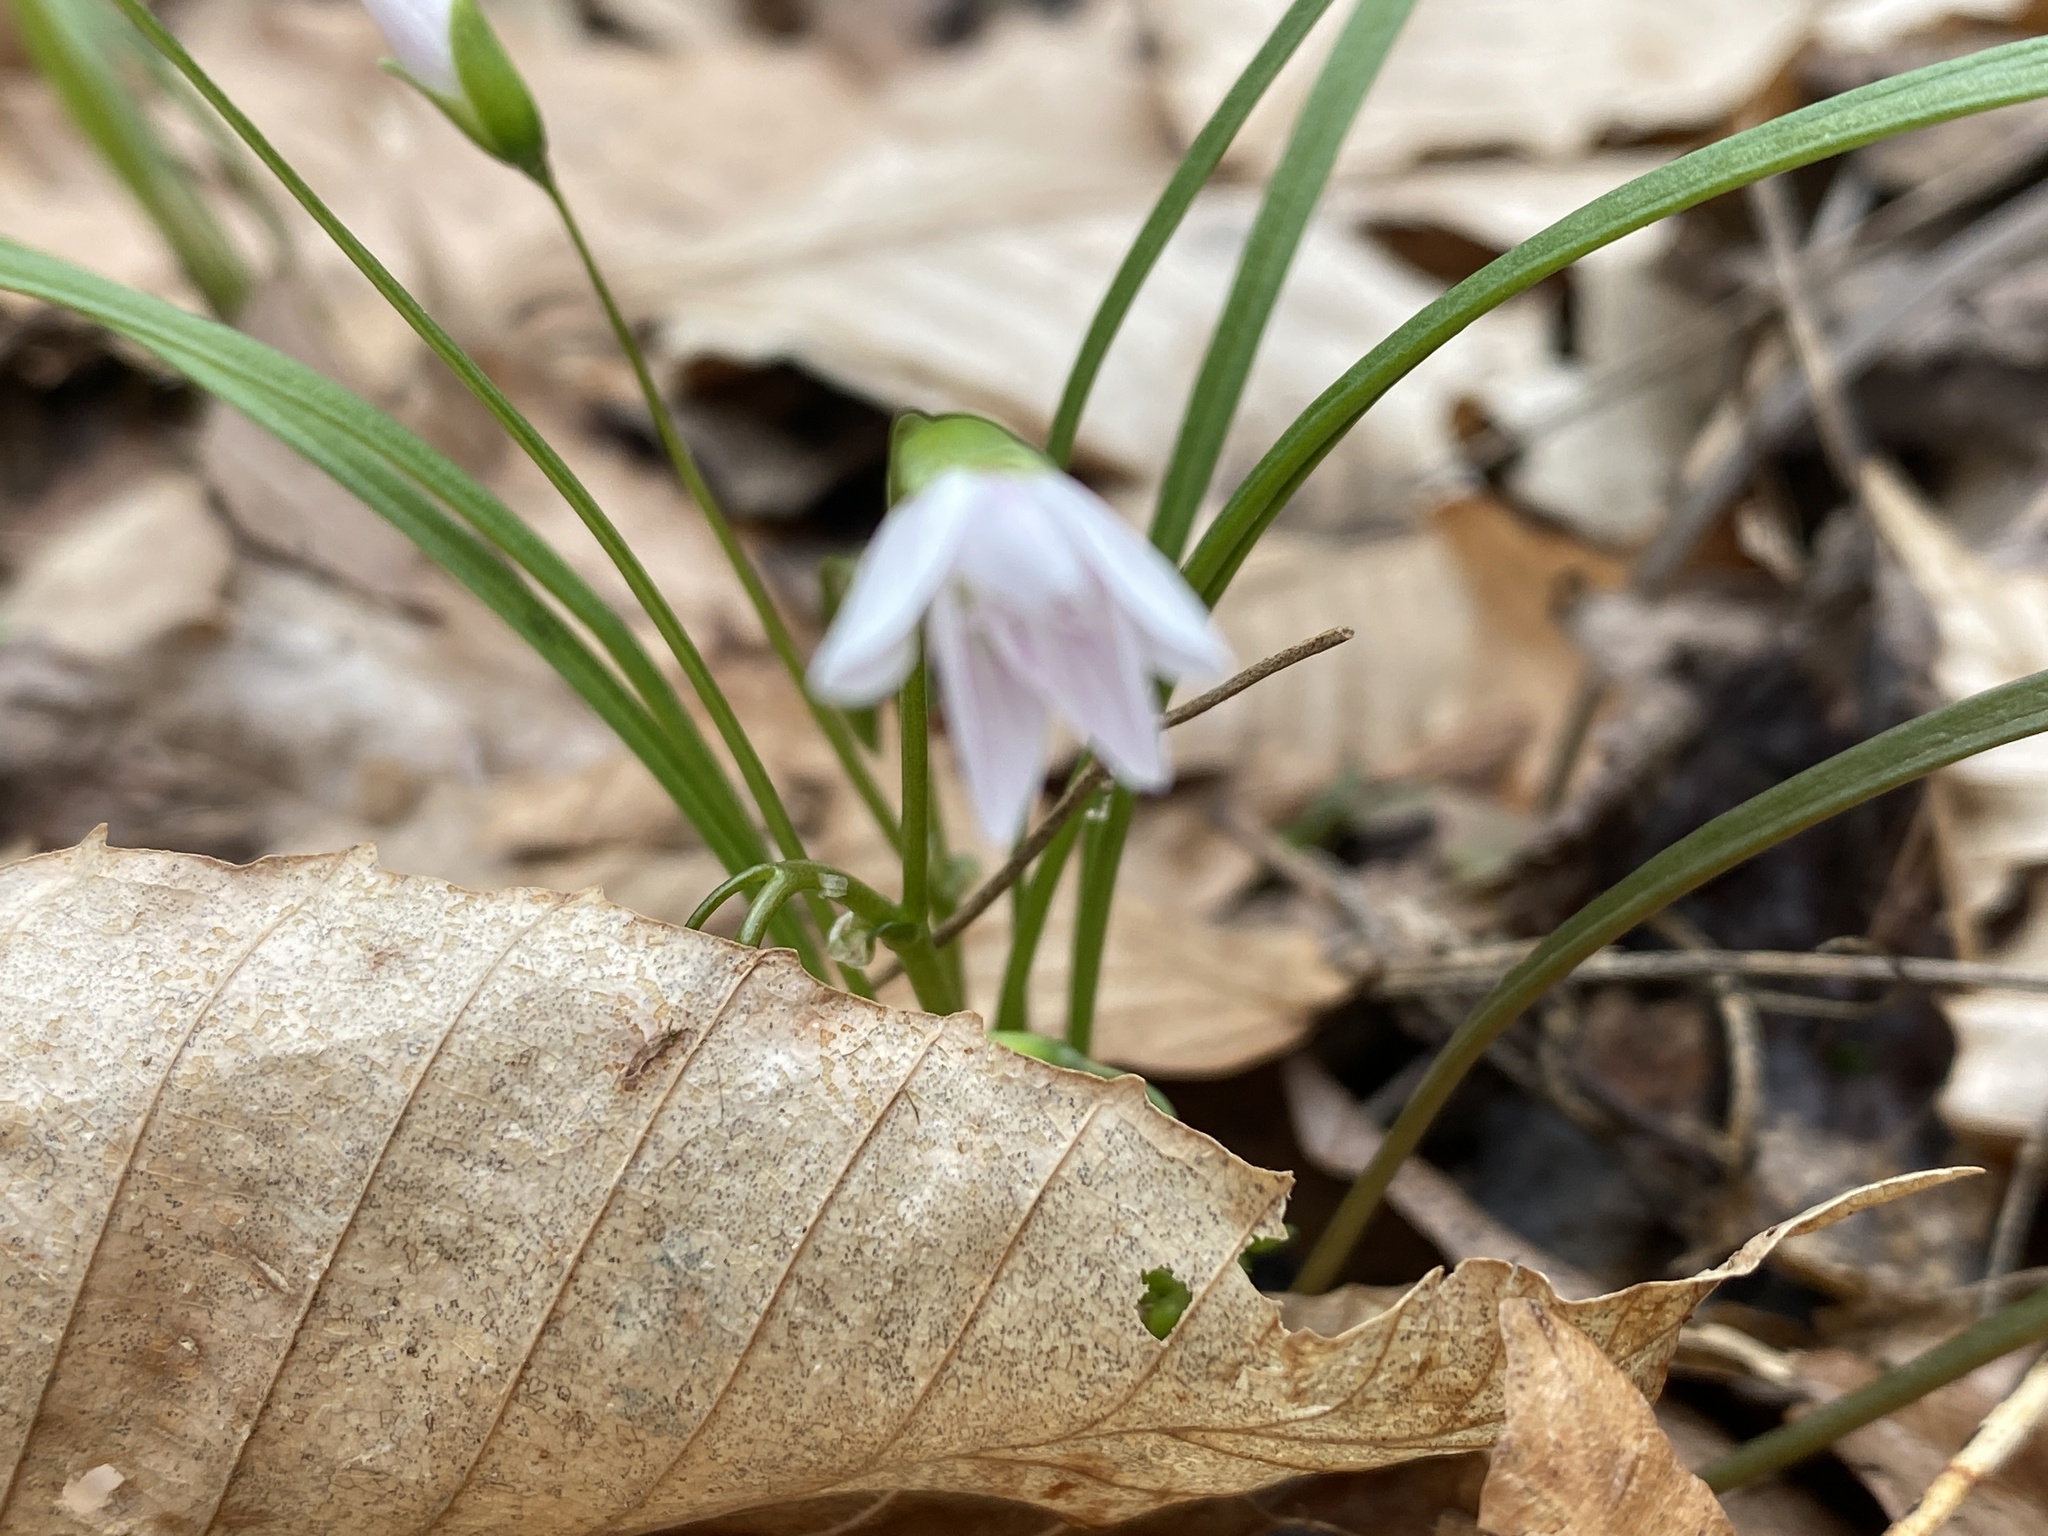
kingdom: Plantae
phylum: Tracheophyta
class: Magnoliopsida
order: Caryophyllales
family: Montiaceae
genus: Claytonia
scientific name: Claytonia virginica
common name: Virginia springbeauty
